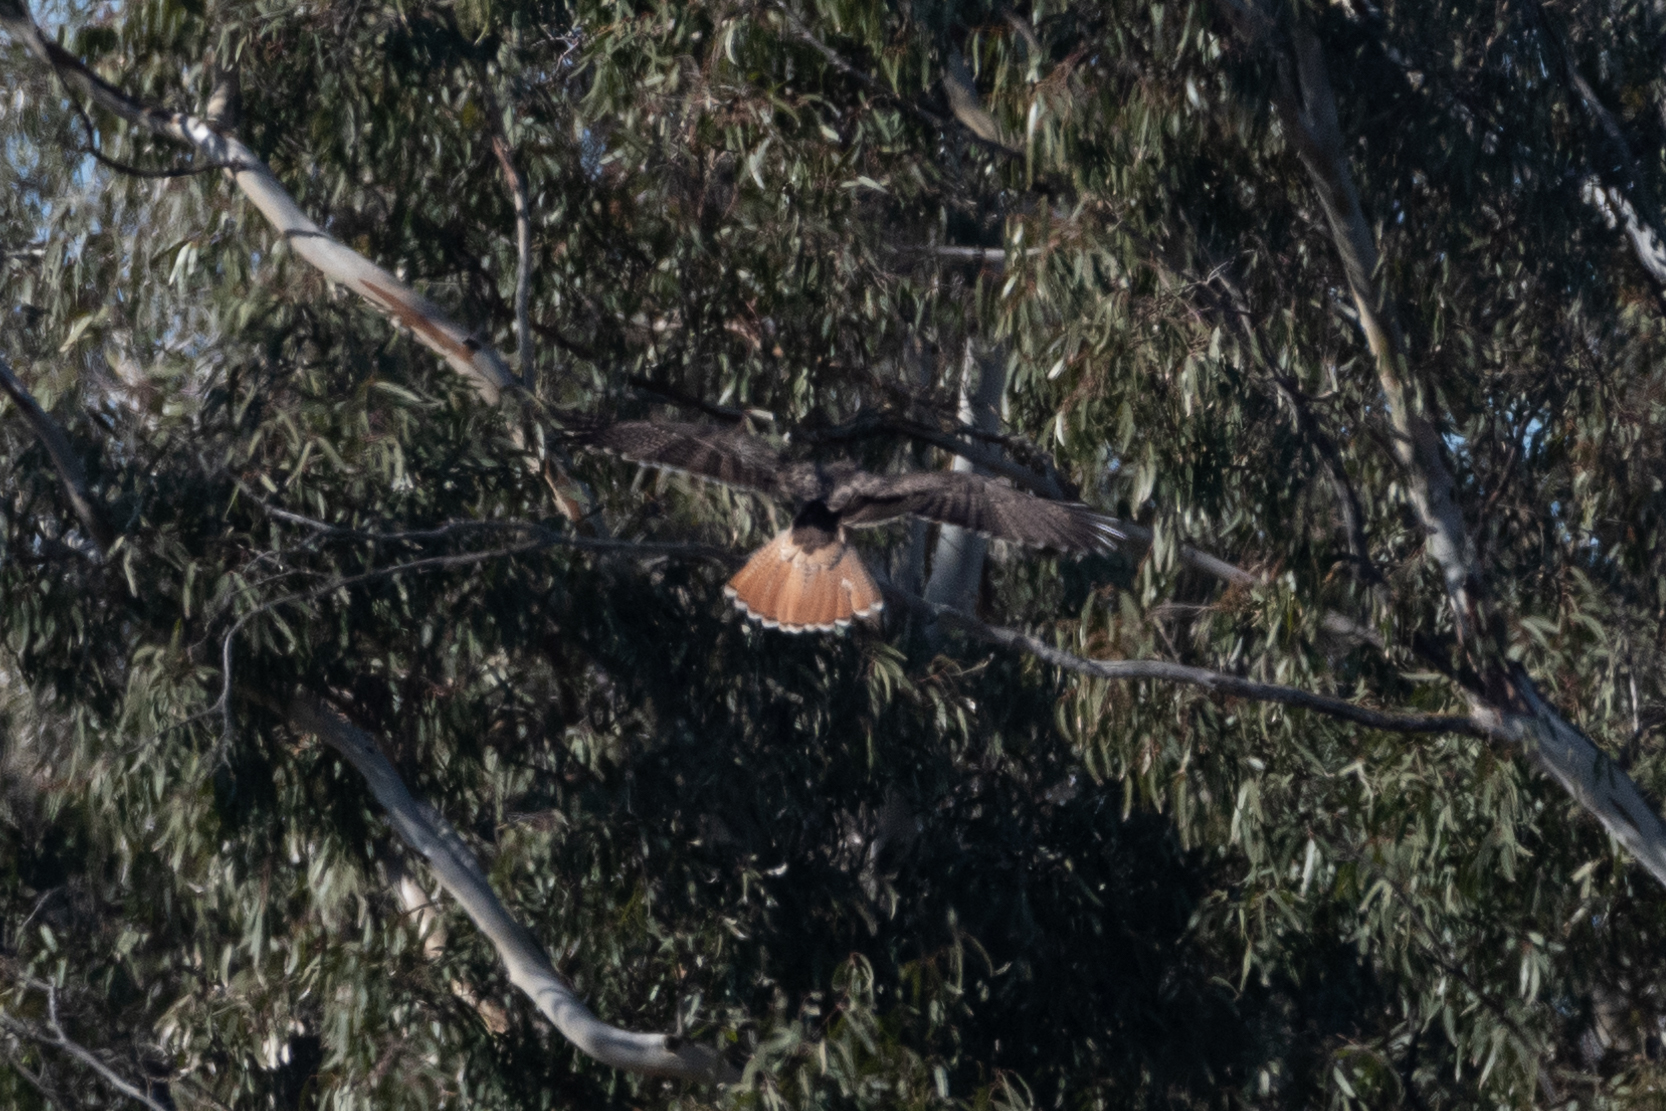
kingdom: Animalia
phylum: Chordata
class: Aves
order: Accipitriformes
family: Accipitridae
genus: Buteo
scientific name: Buteo jamaicensis
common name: Red-tailed hawk
